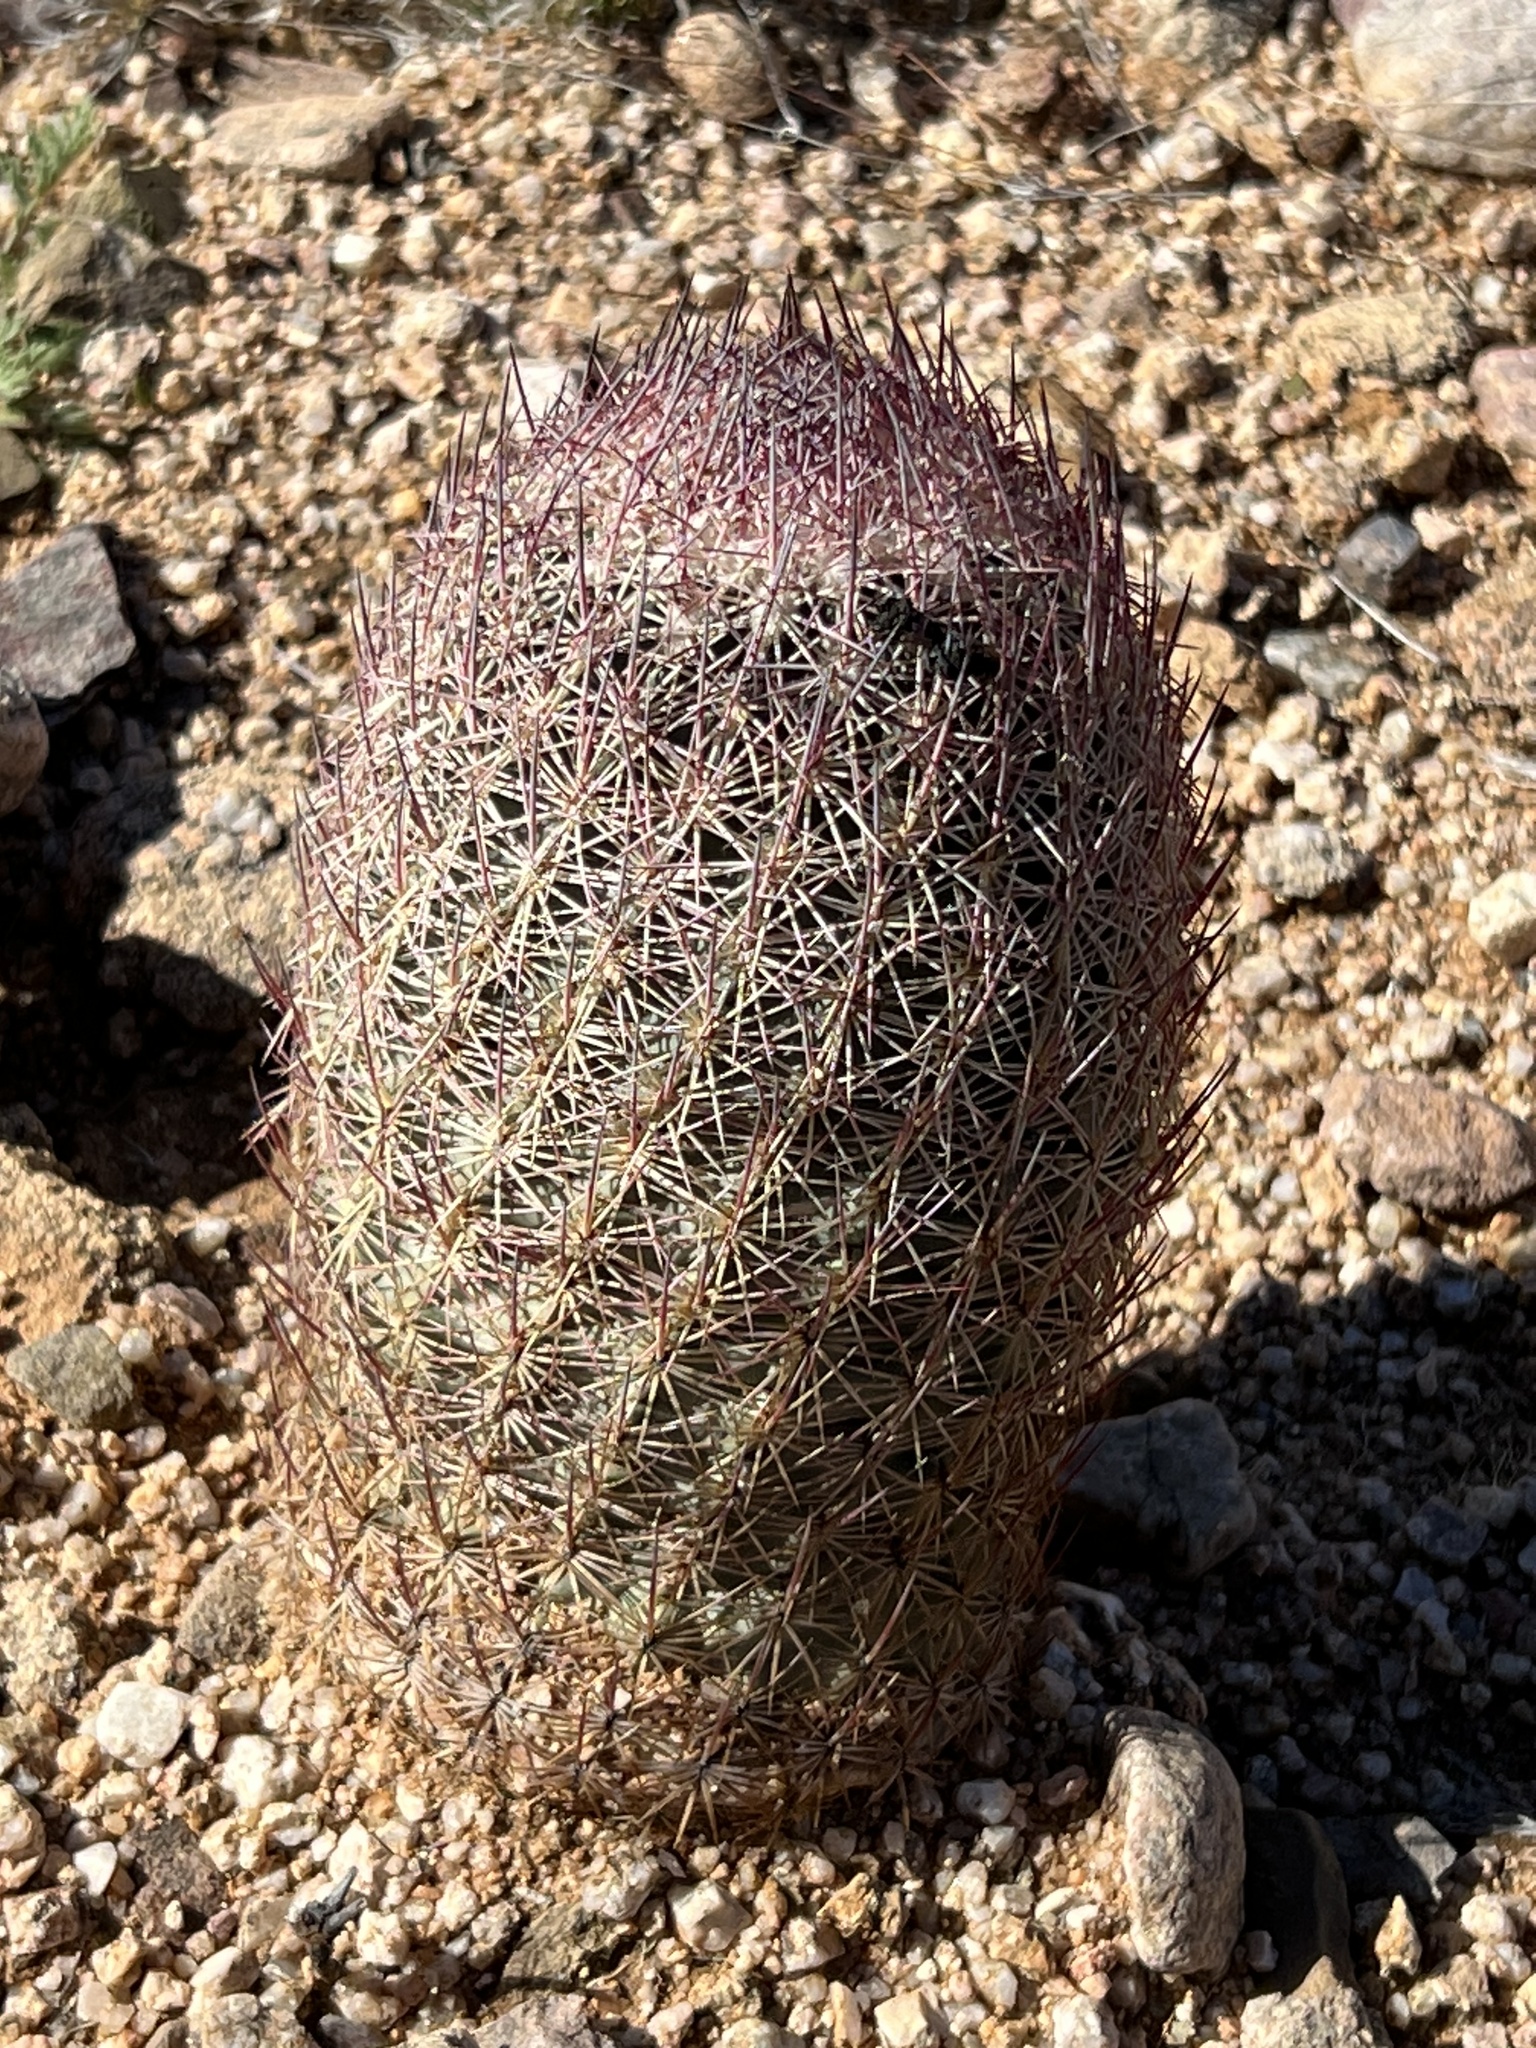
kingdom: Plantae
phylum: Tracheophyta
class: Magnoliopsida
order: Caryophyllales
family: Cactaceae
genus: Sclerocactus
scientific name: Sclerocactus johnsonii
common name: Eight-spine fishhook cactus
